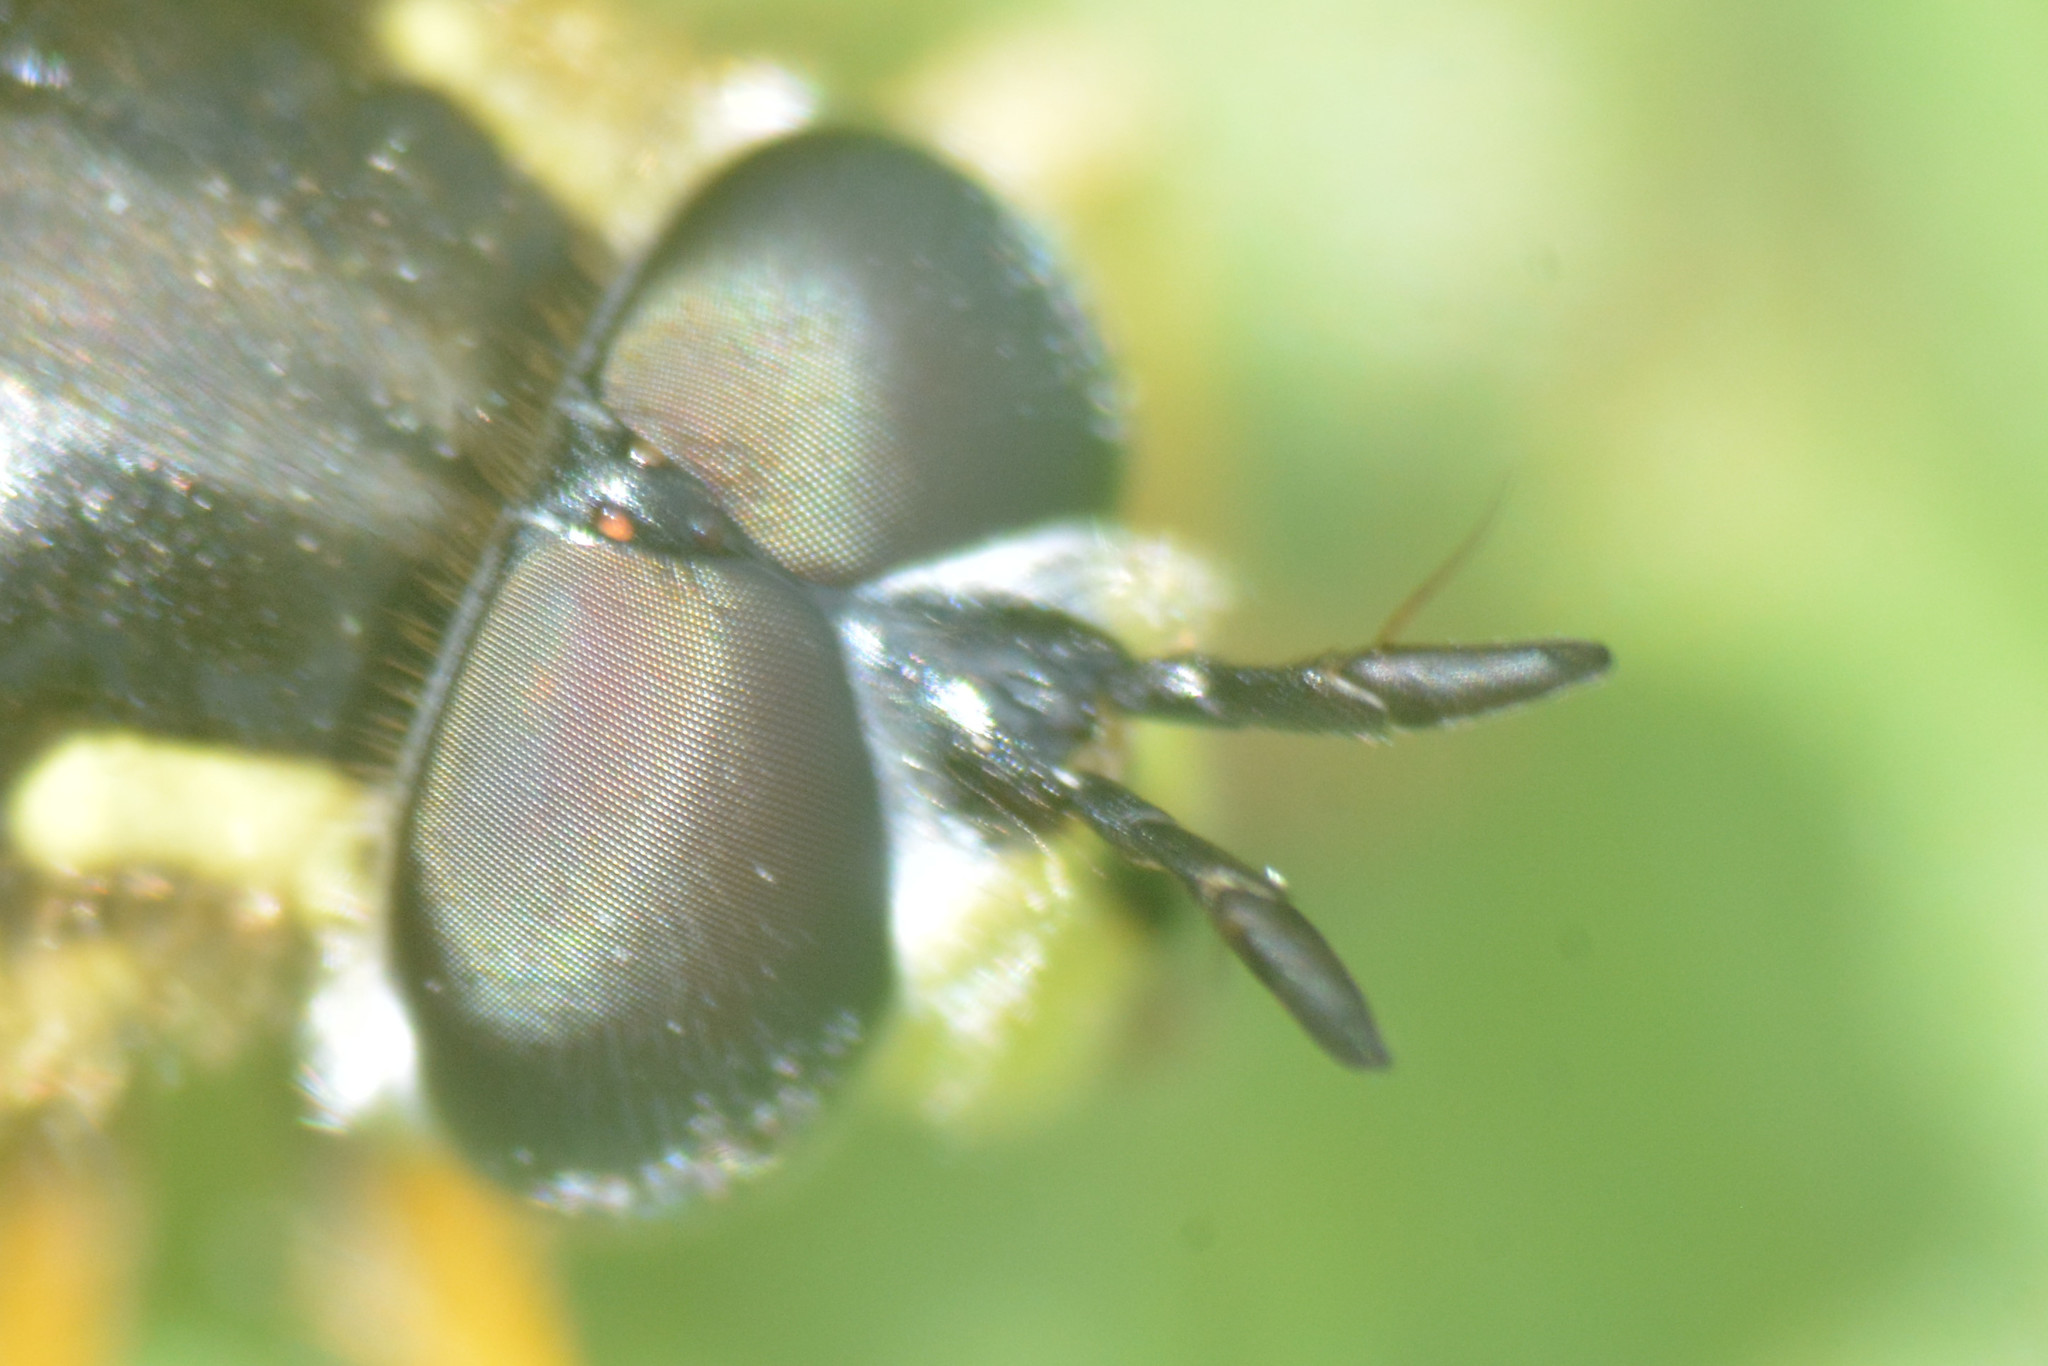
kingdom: Animalia
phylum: Arthropoda
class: Insecta
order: Diptera
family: Syrphidae
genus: Chrysotoxum
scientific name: Chrysotoxum cautum
